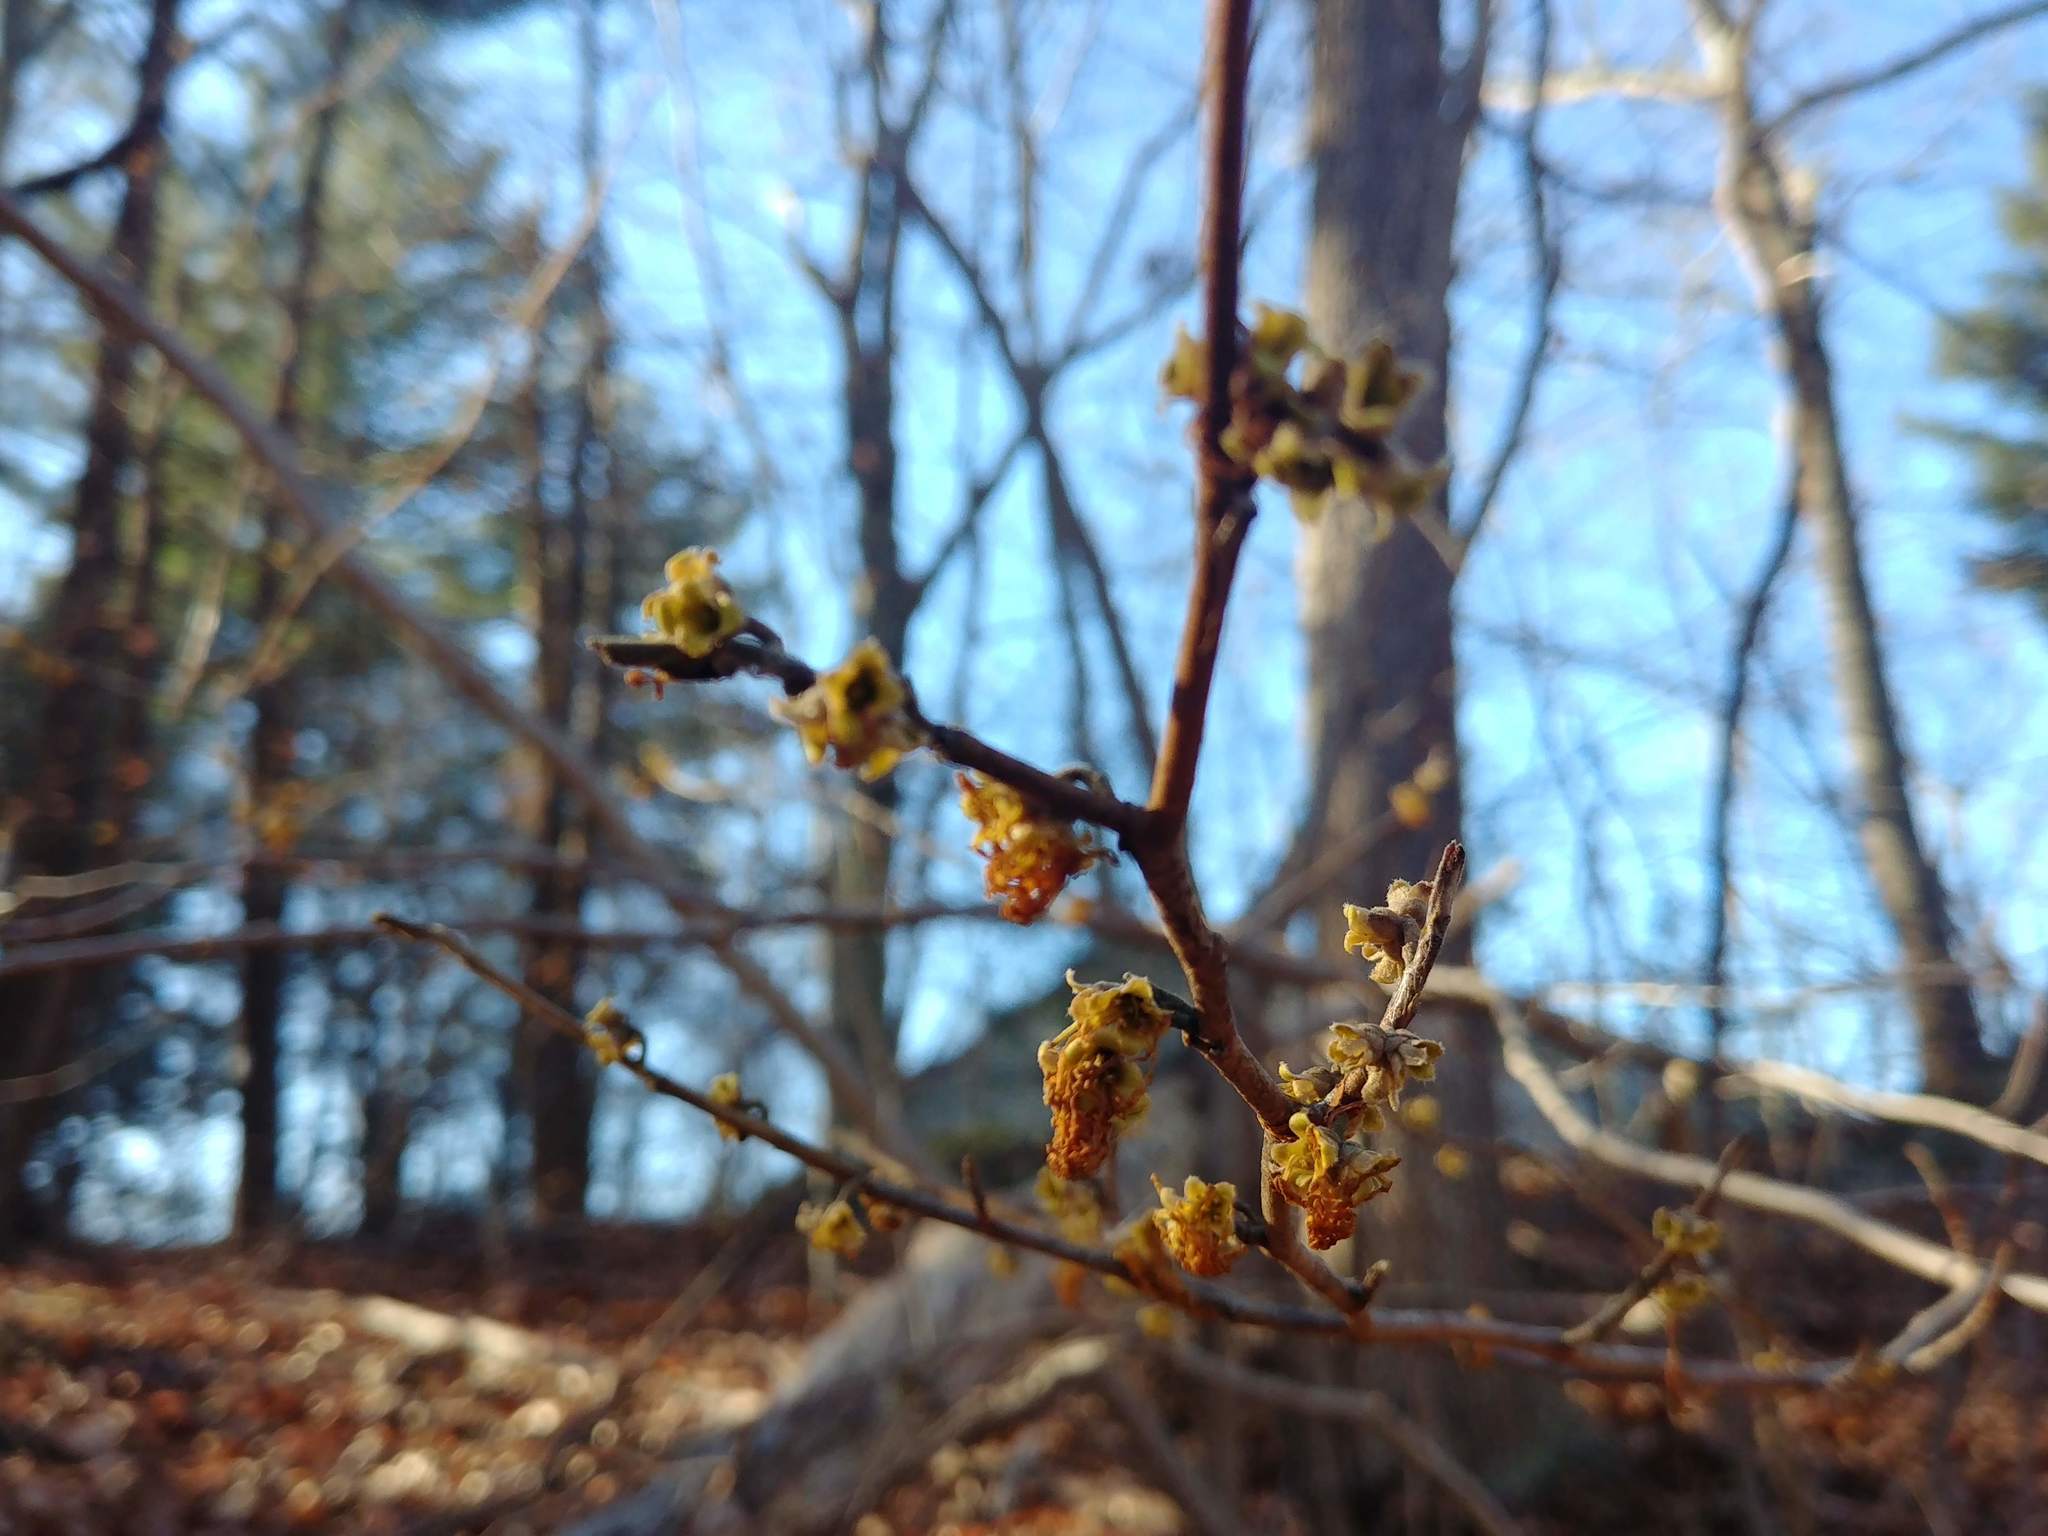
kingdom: Plantae
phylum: Tracheophyta
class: Magnoliopsida
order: Saxifragales
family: Hamamelidaceae
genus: Hamamelis
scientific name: Hamamelis virginiana
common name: Witch-hazel
